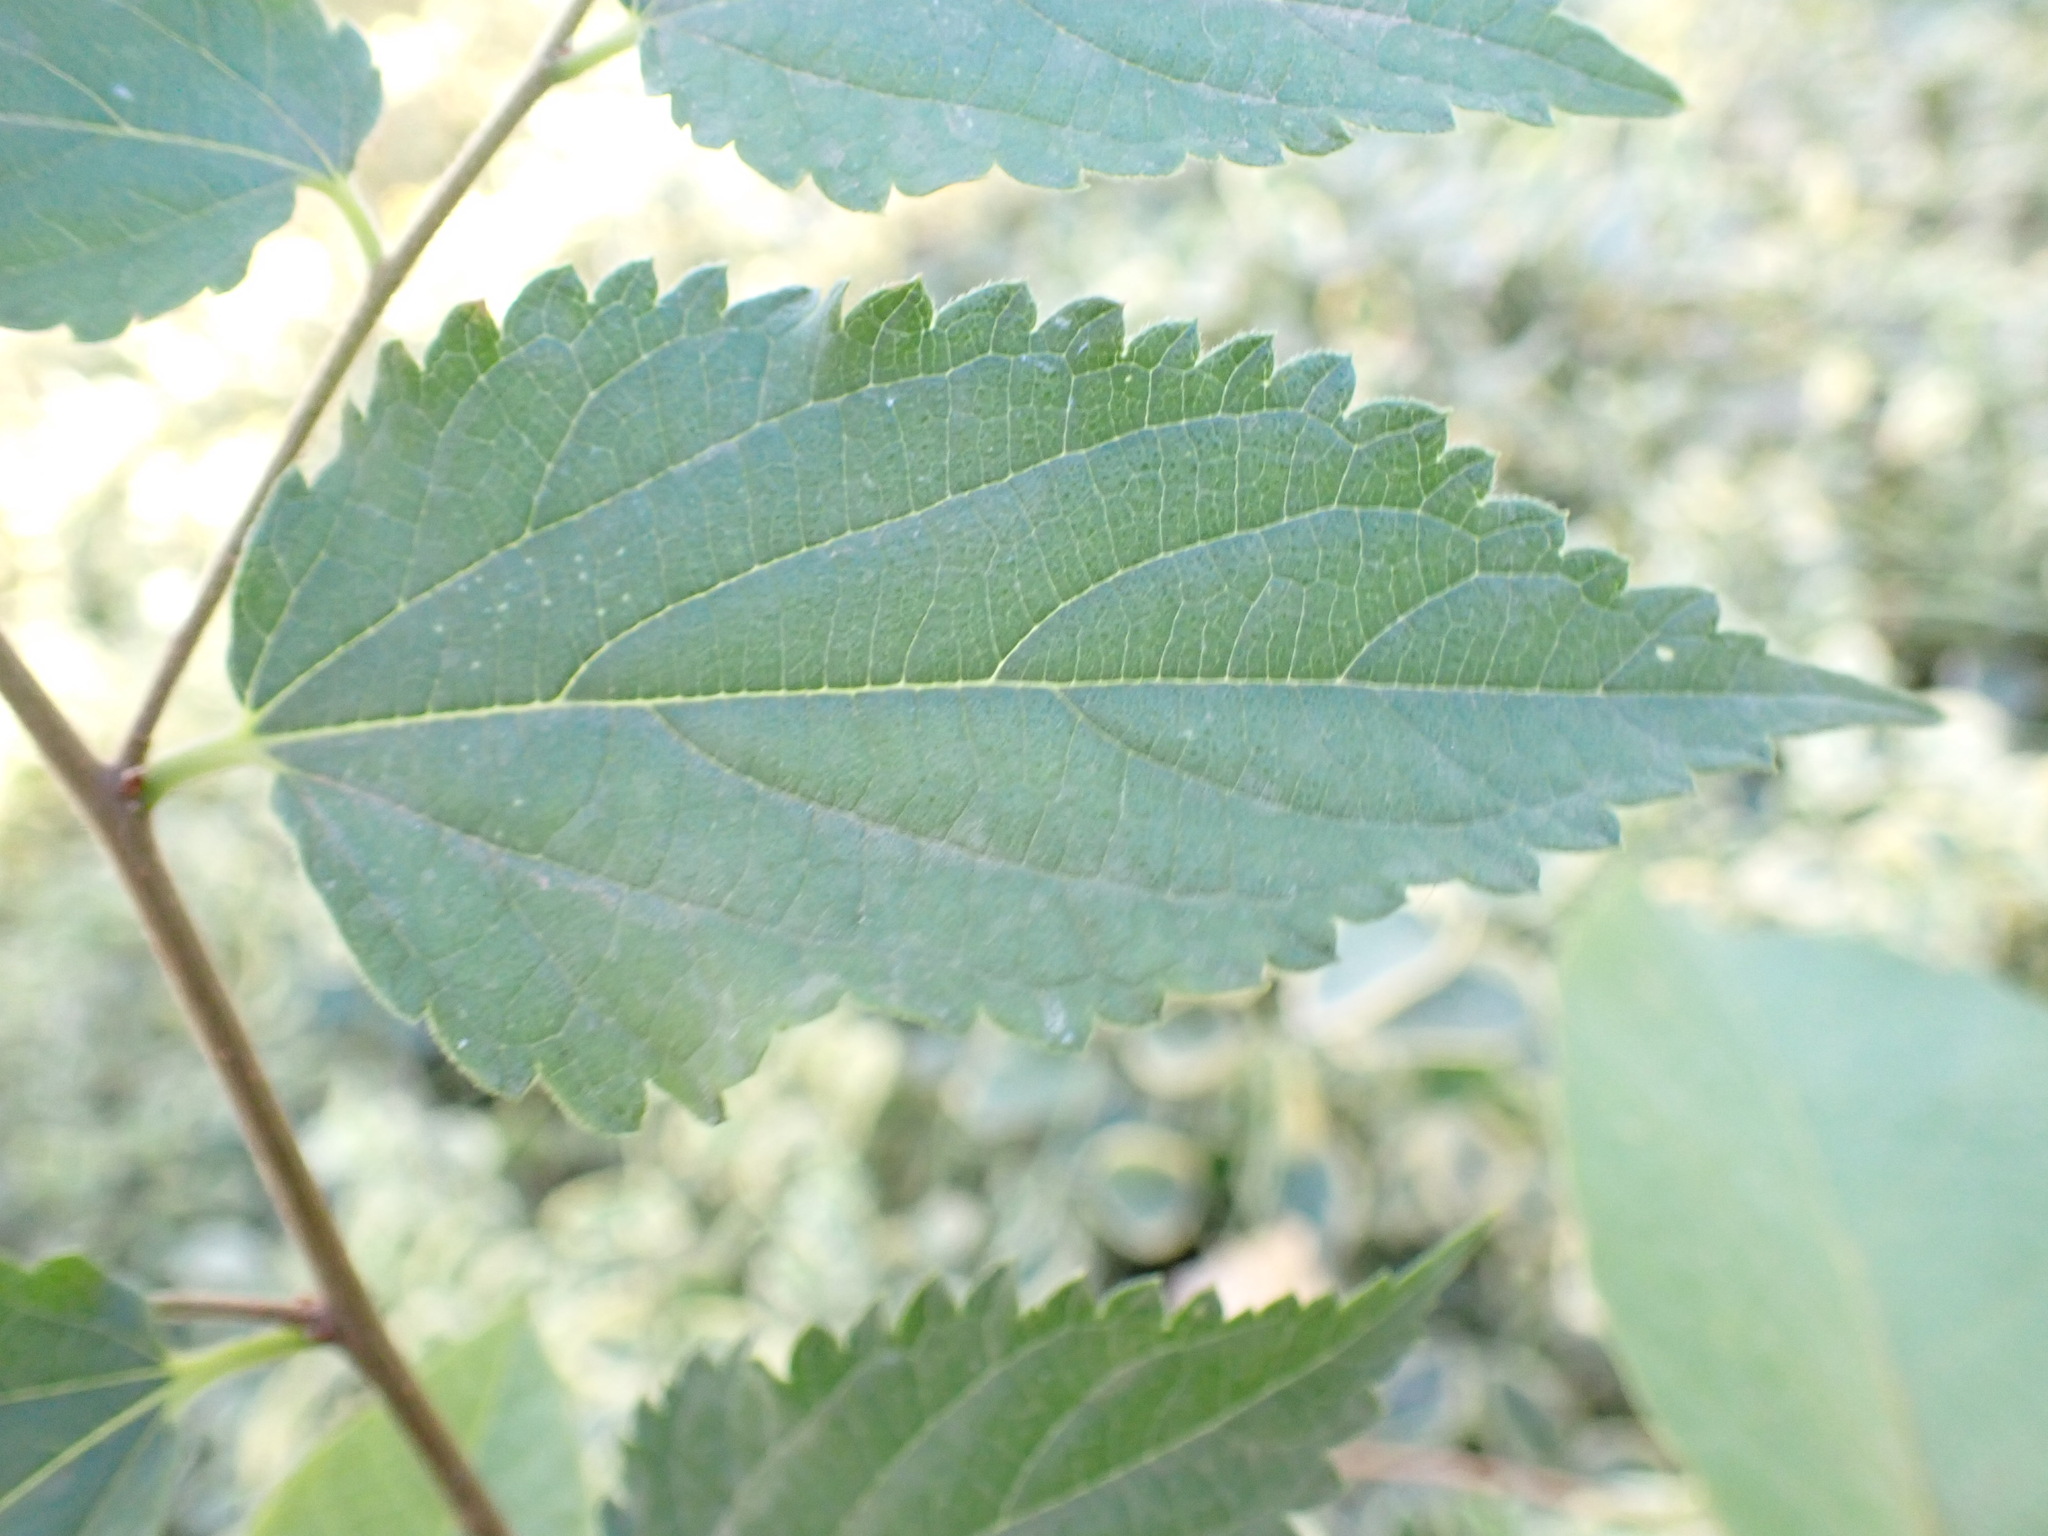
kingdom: Plantae
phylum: Tracheophyta
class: Magnoliopsida
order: Rosales
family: Cannabaceae
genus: Celtis
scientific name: Celtis australis
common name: European hackberry
